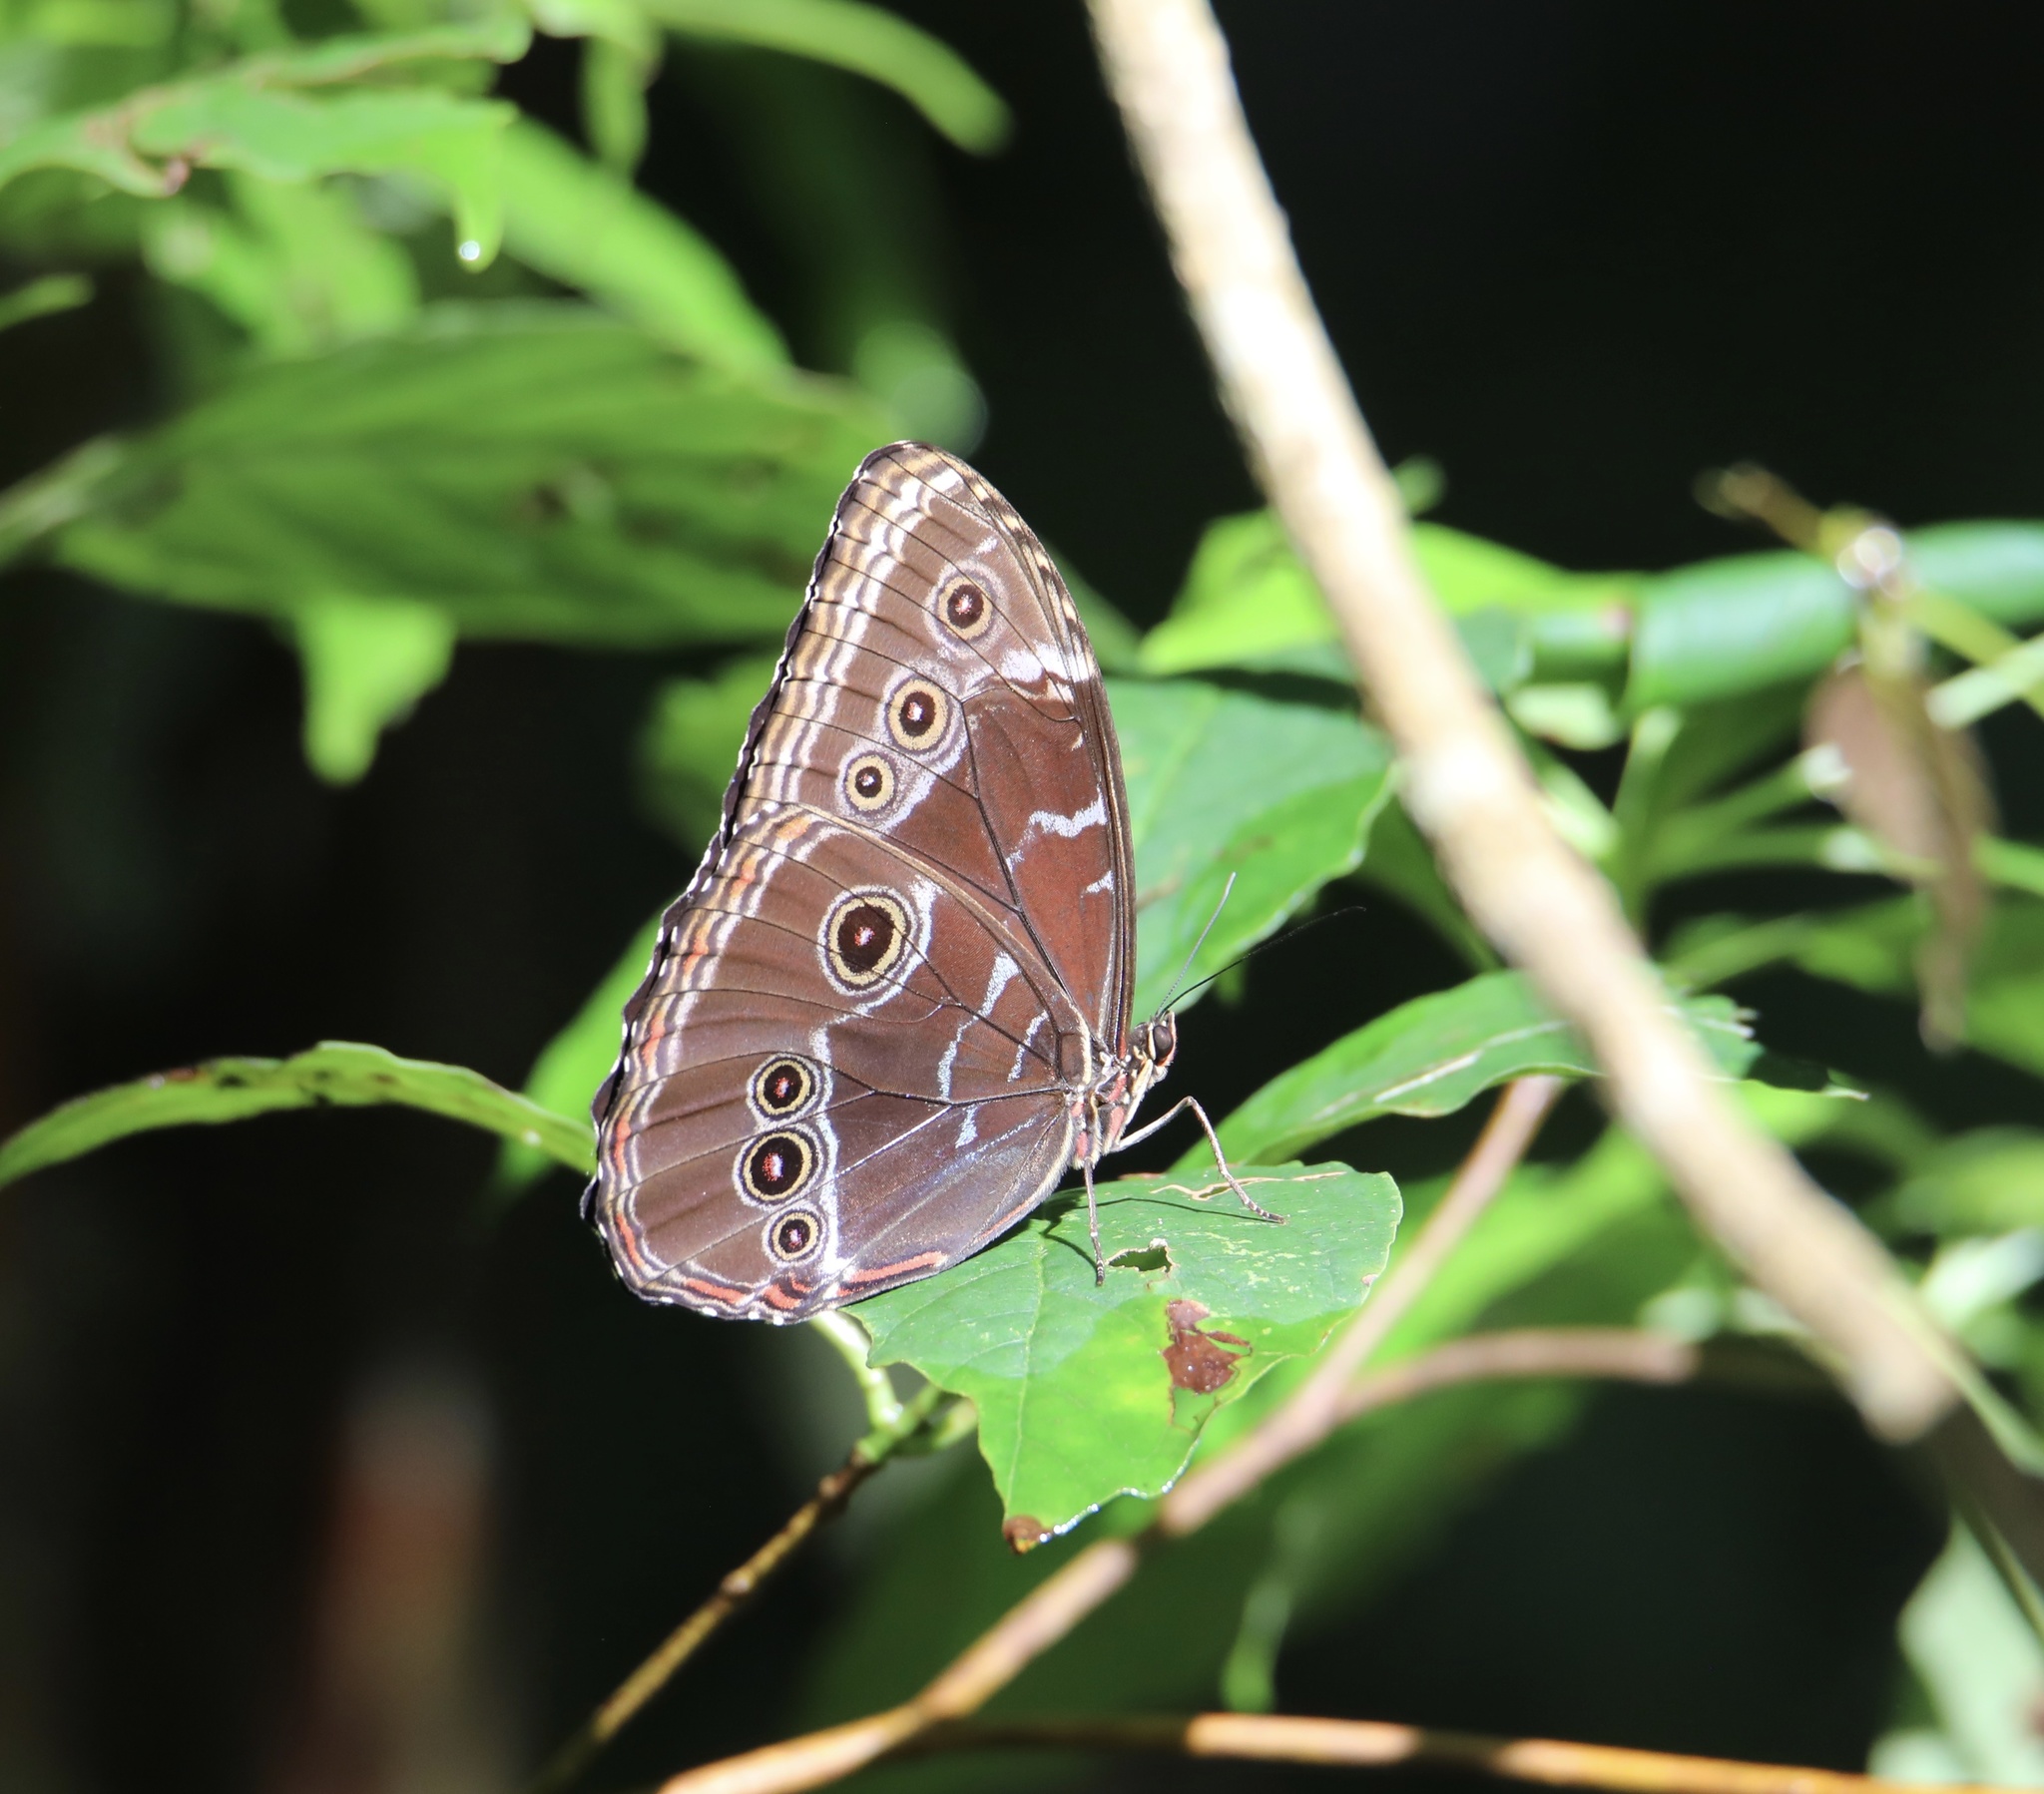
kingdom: Animalia
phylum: Arthropoda
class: Insecta
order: Lepidoptera
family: Nymphalidae
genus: Morpho
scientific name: Morpho helenor
